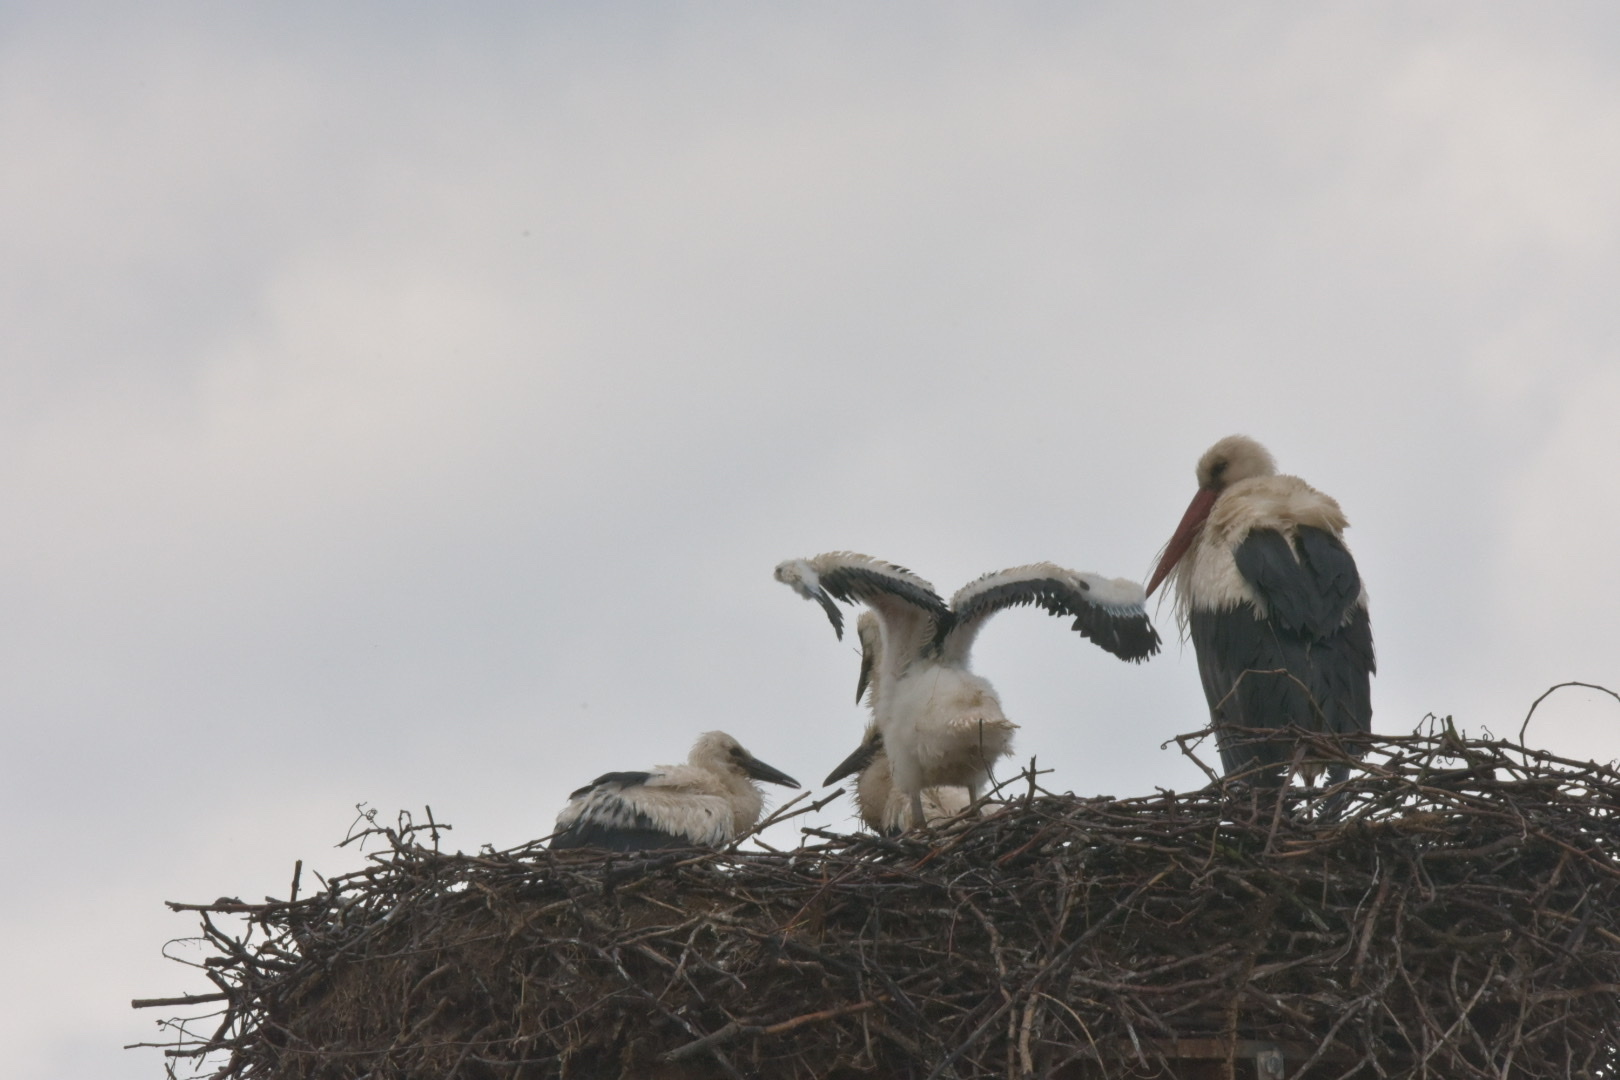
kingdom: Animalia
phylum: Chordata
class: Aves
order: Ciconiiformes
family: Ciconiidae
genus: Ciconia
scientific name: Ciconia ciconia
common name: White stork
